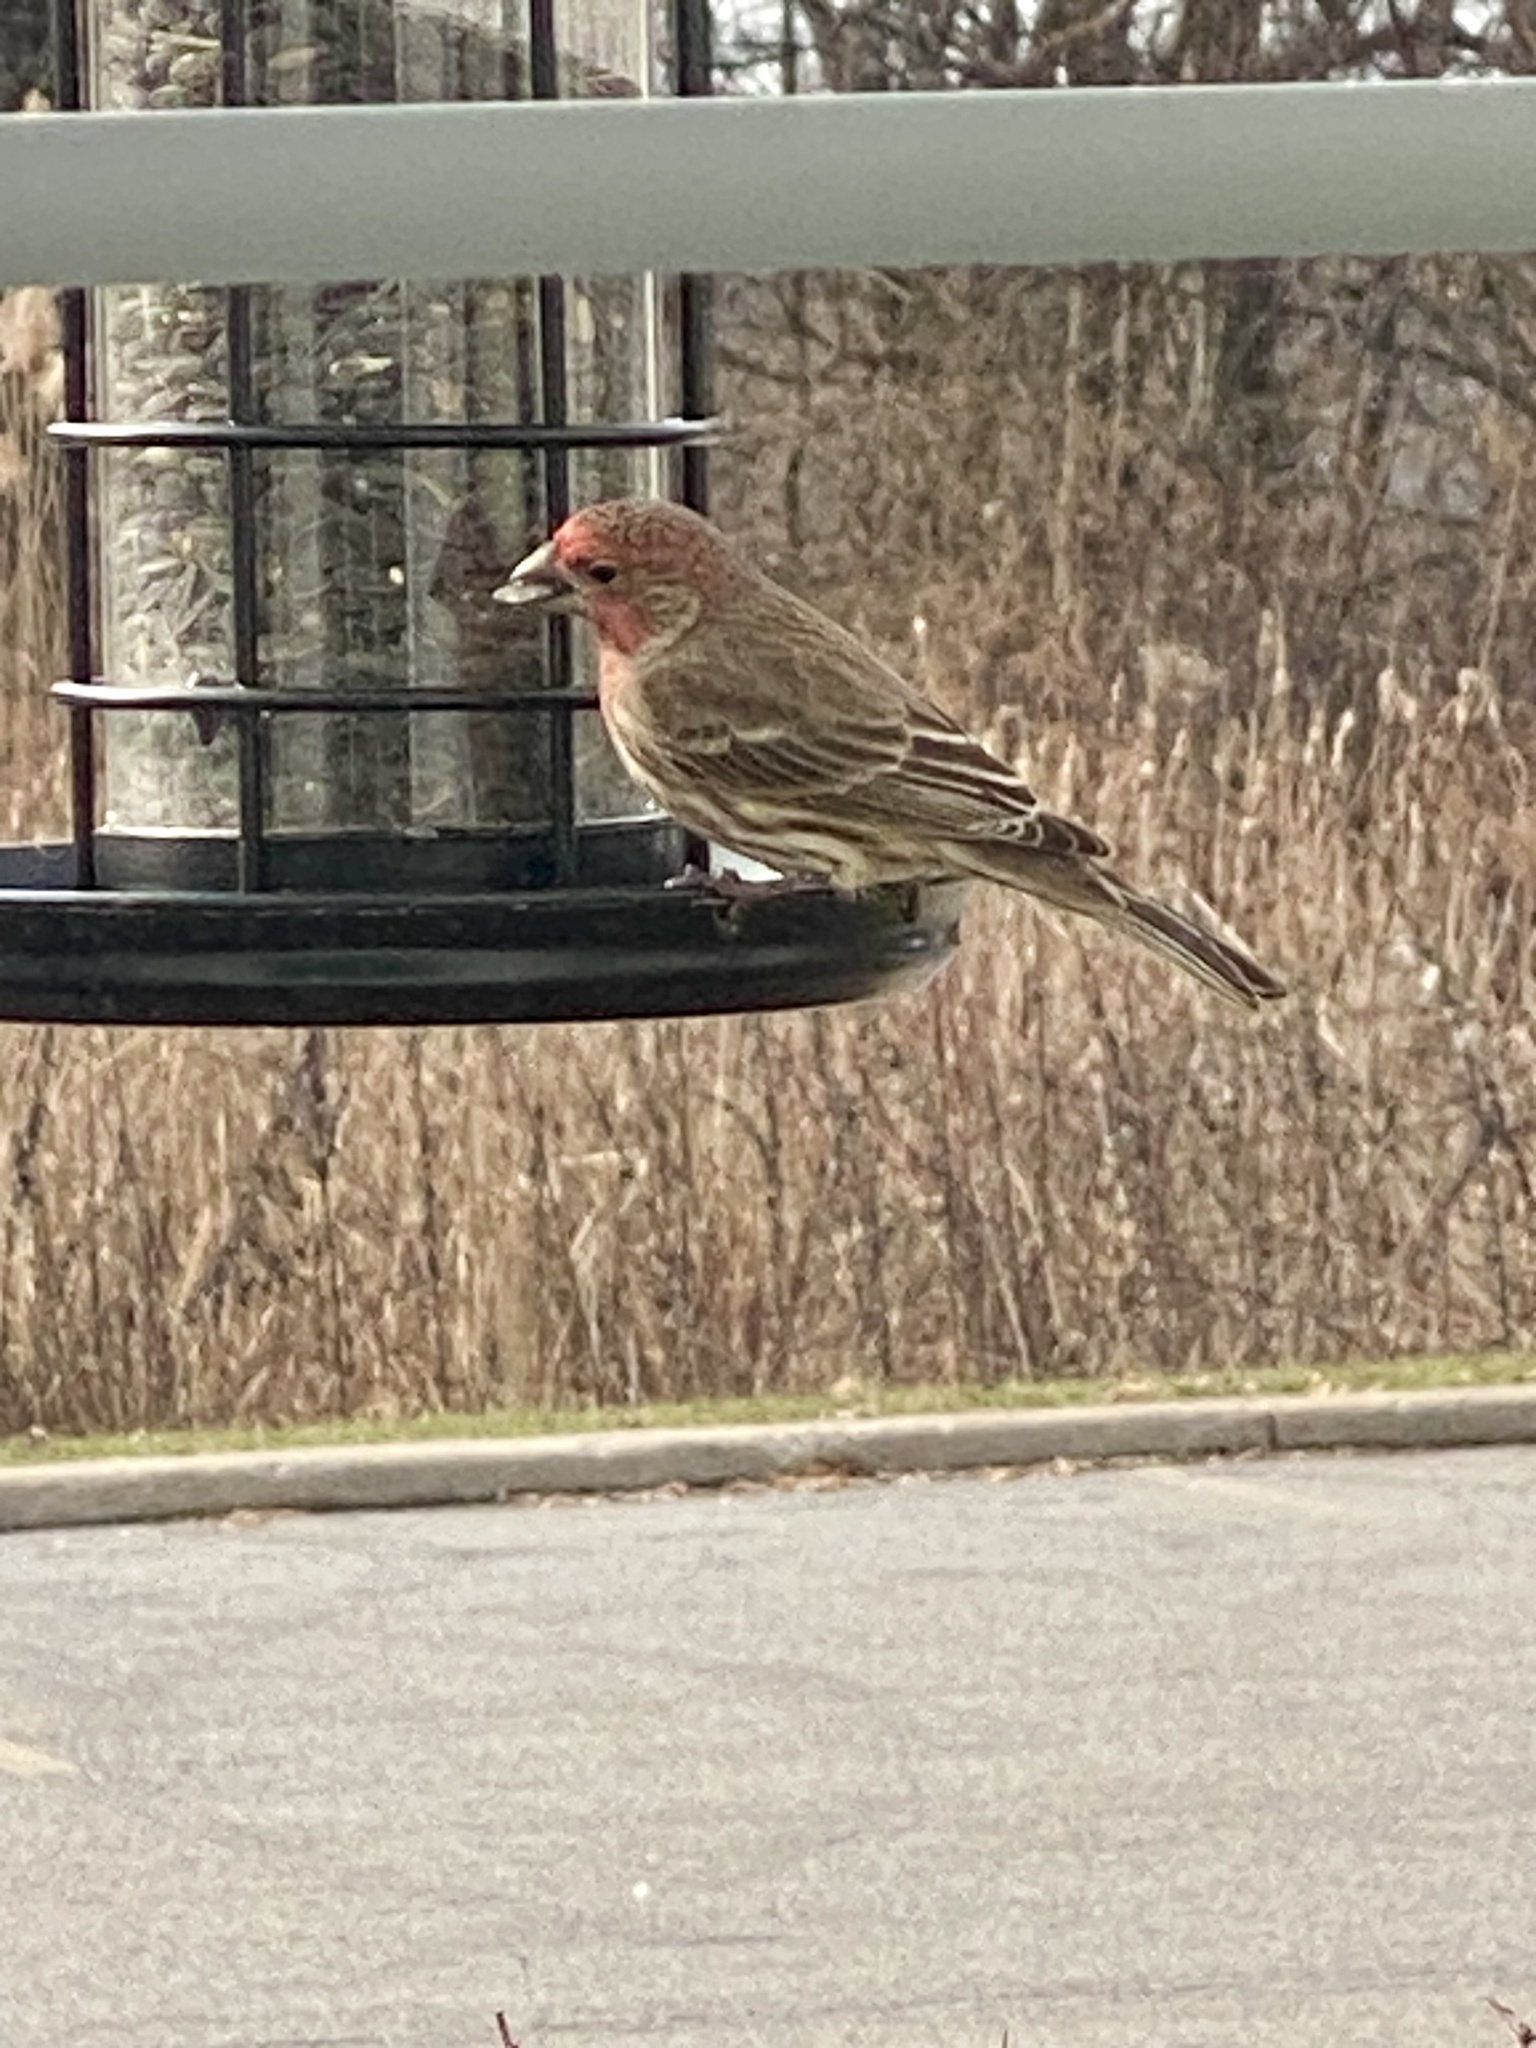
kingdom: Animalia
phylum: Chordata
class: Aves
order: Passeriformes
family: Fringillidae
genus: Haemorhous
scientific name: Haemorhous mexicanus
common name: House finch
